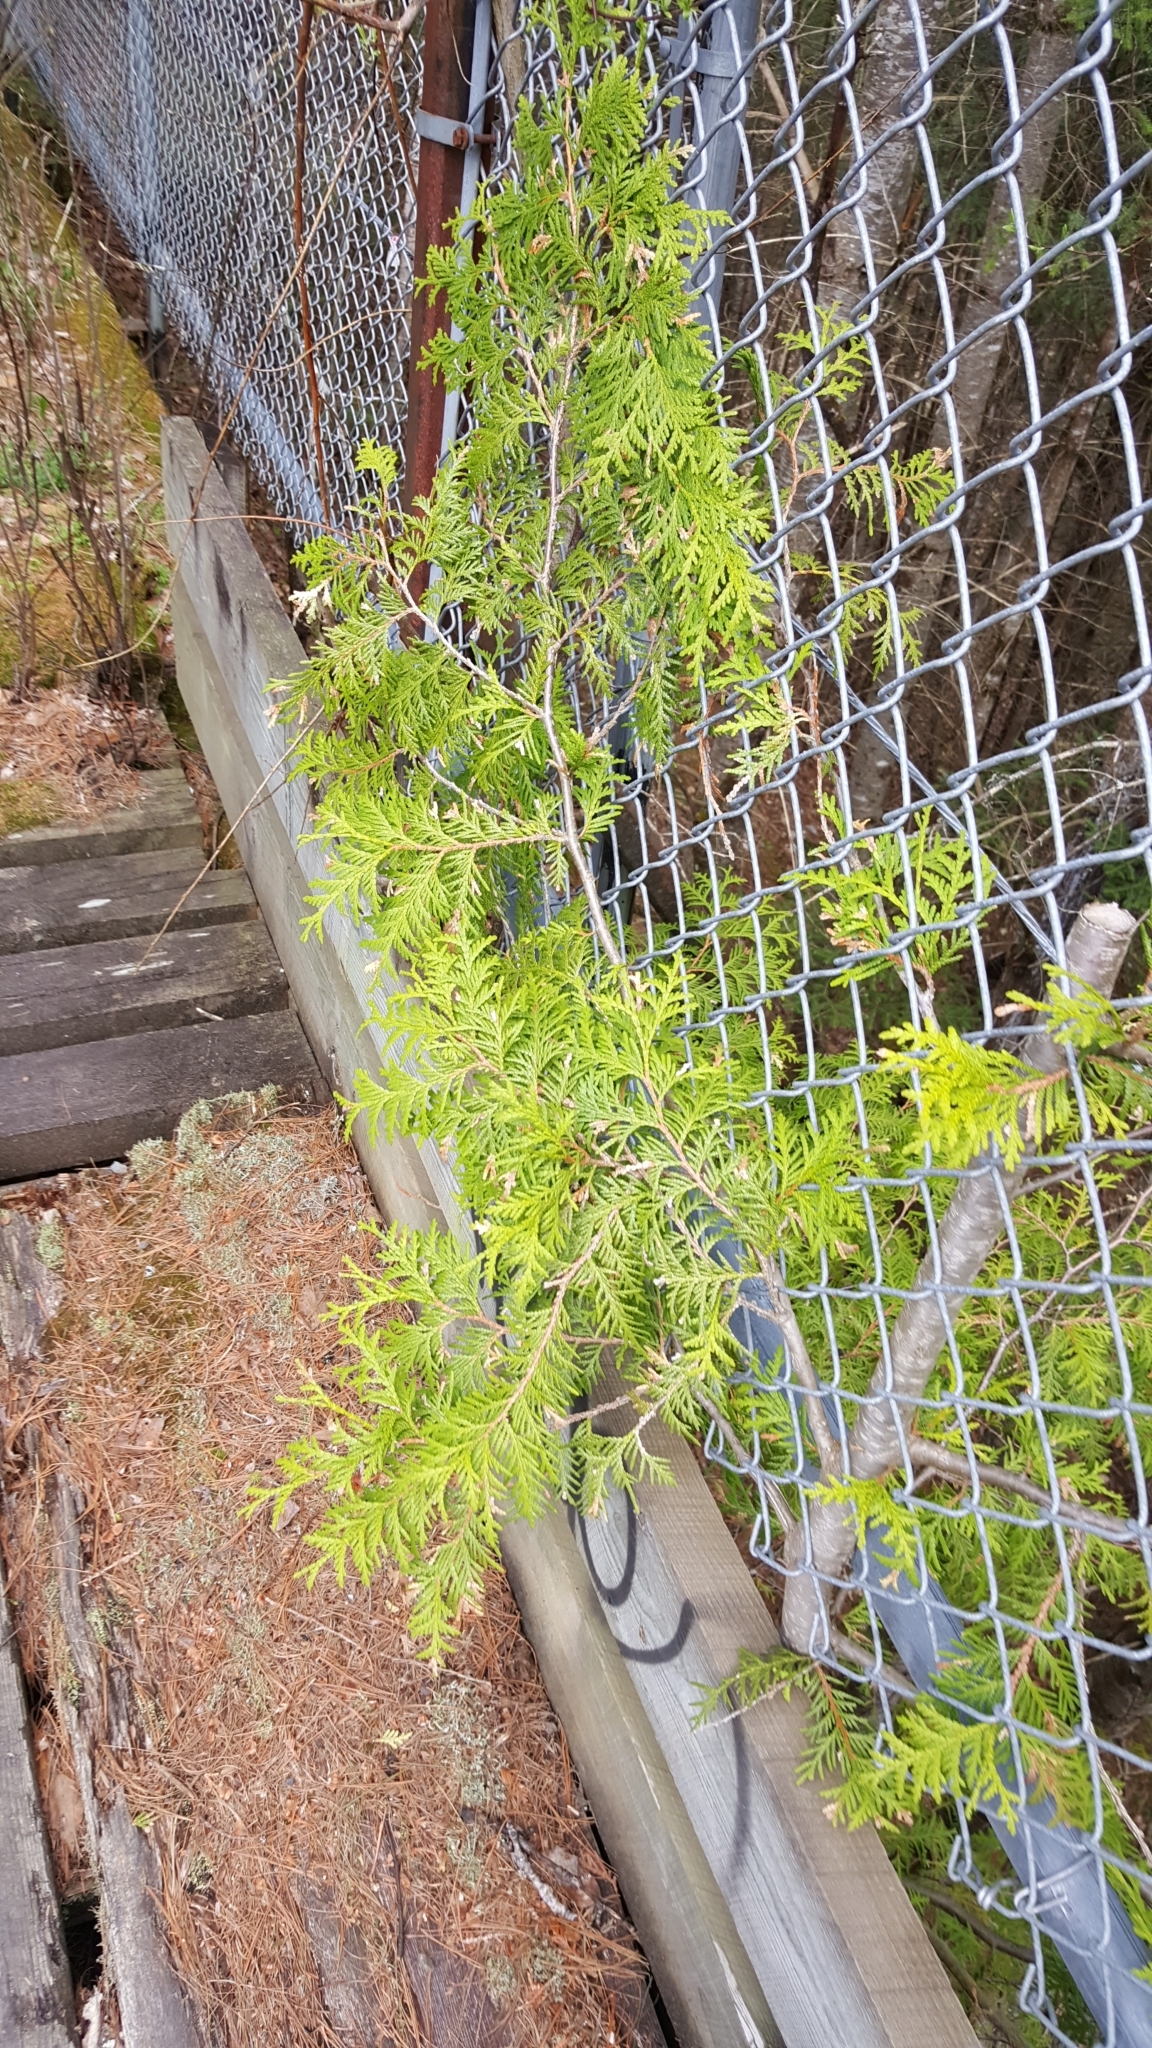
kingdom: Plantae
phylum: Tracheophyta
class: Pinopsida
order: Pinales
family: Cupressaceae
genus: Thuja
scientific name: Thuja occidentalis
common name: Northern white-cedar
